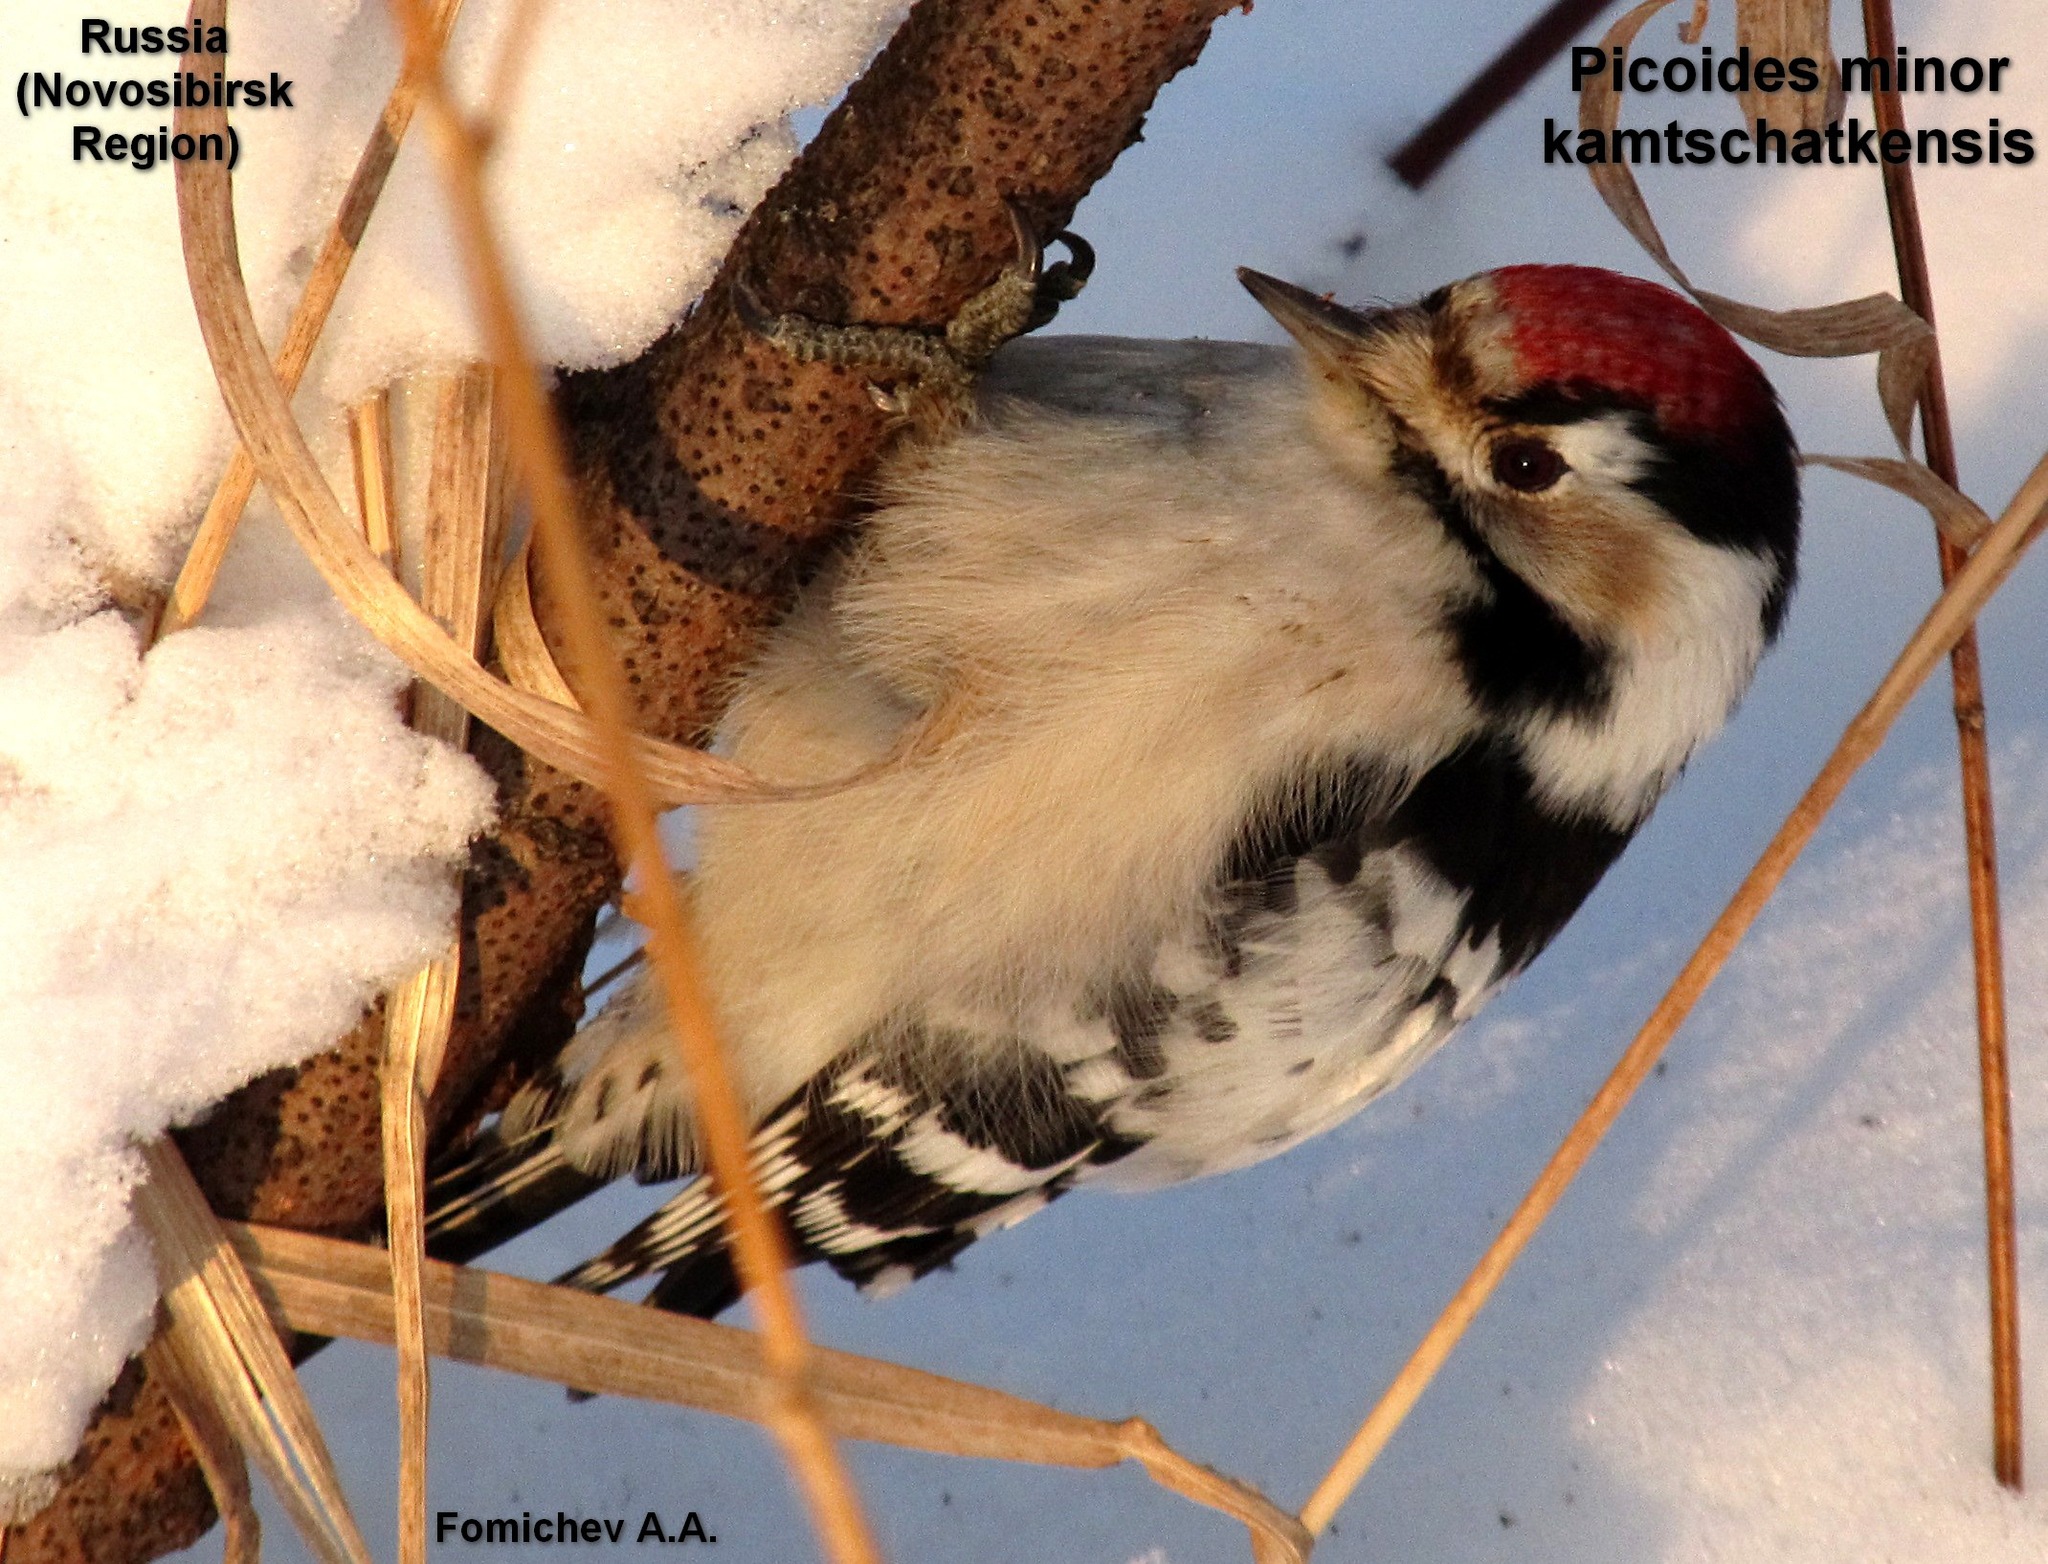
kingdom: Animalia
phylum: Chordata
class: Aves
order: Piciformes
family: Picidae
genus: Dryobates
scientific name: Dryobates minor
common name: Lesser spotted woodpecker
